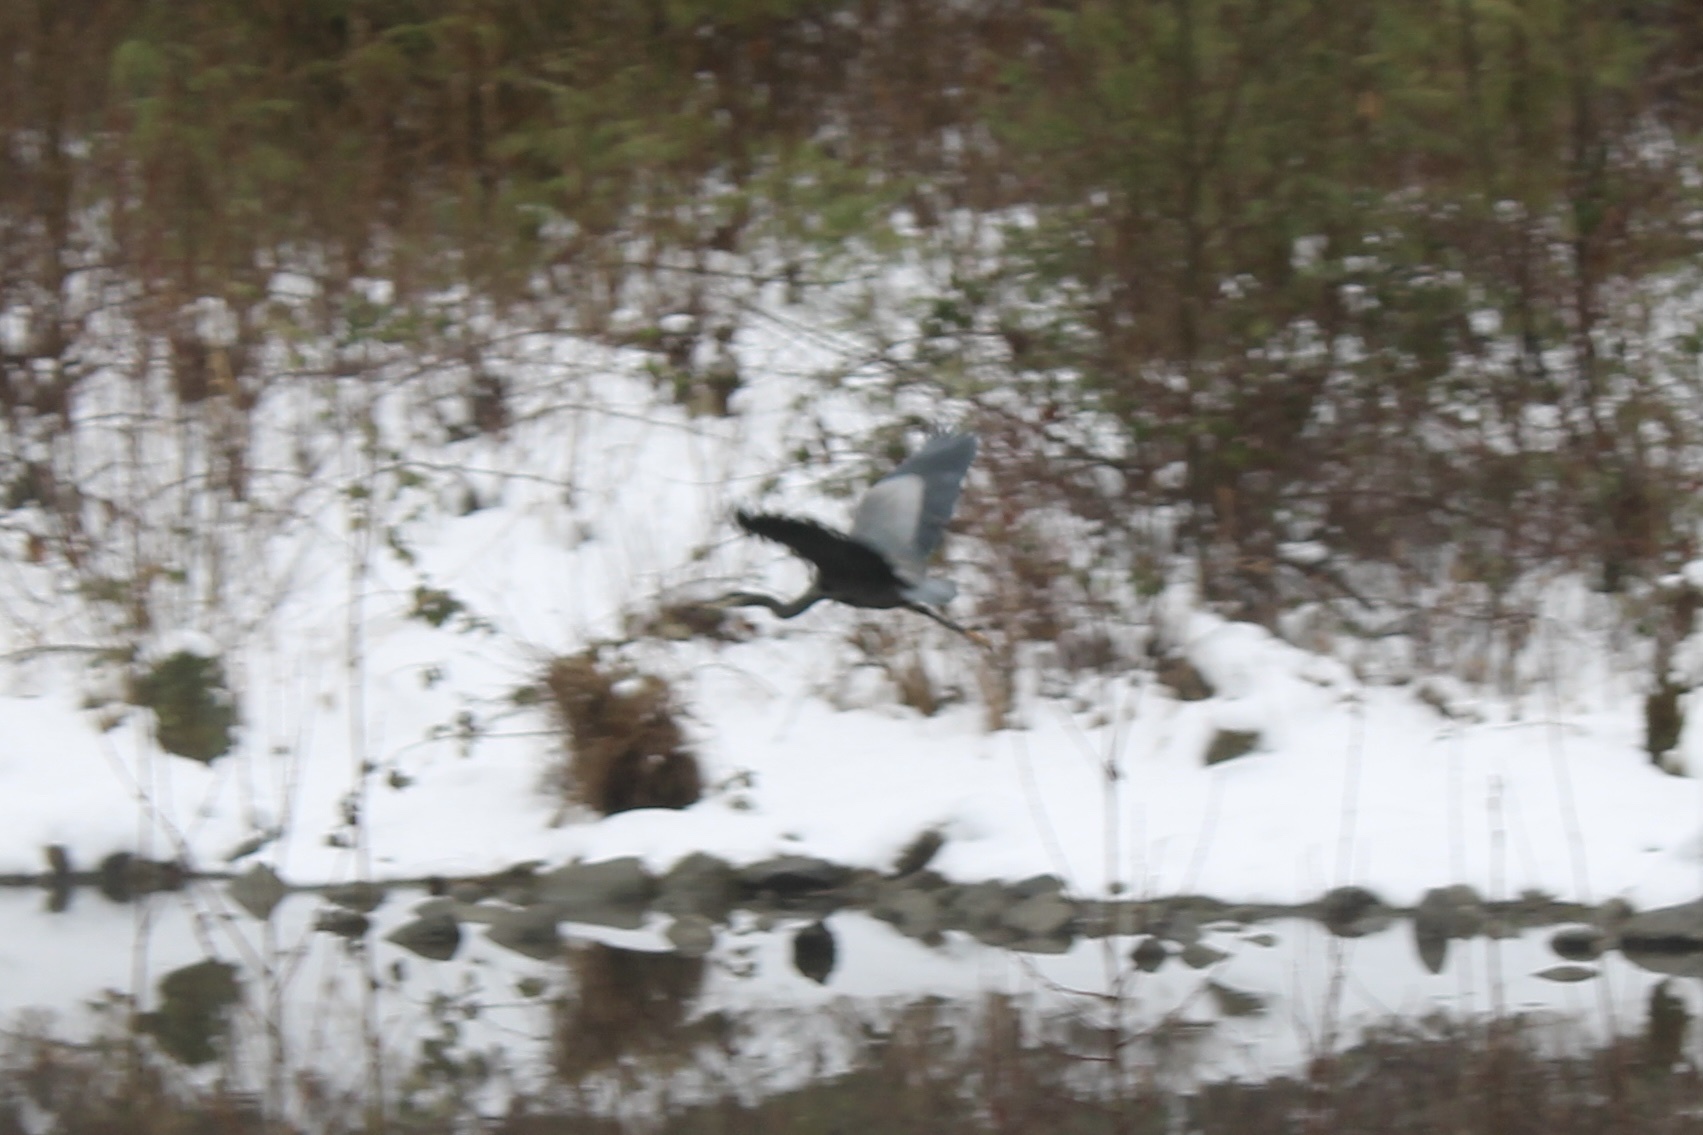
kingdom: Animalia
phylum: Chordata
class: Aves
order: Pelecaniformes
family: Ardeidae
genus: Ardea
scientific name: Ardea herodias
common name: Great blue heron
